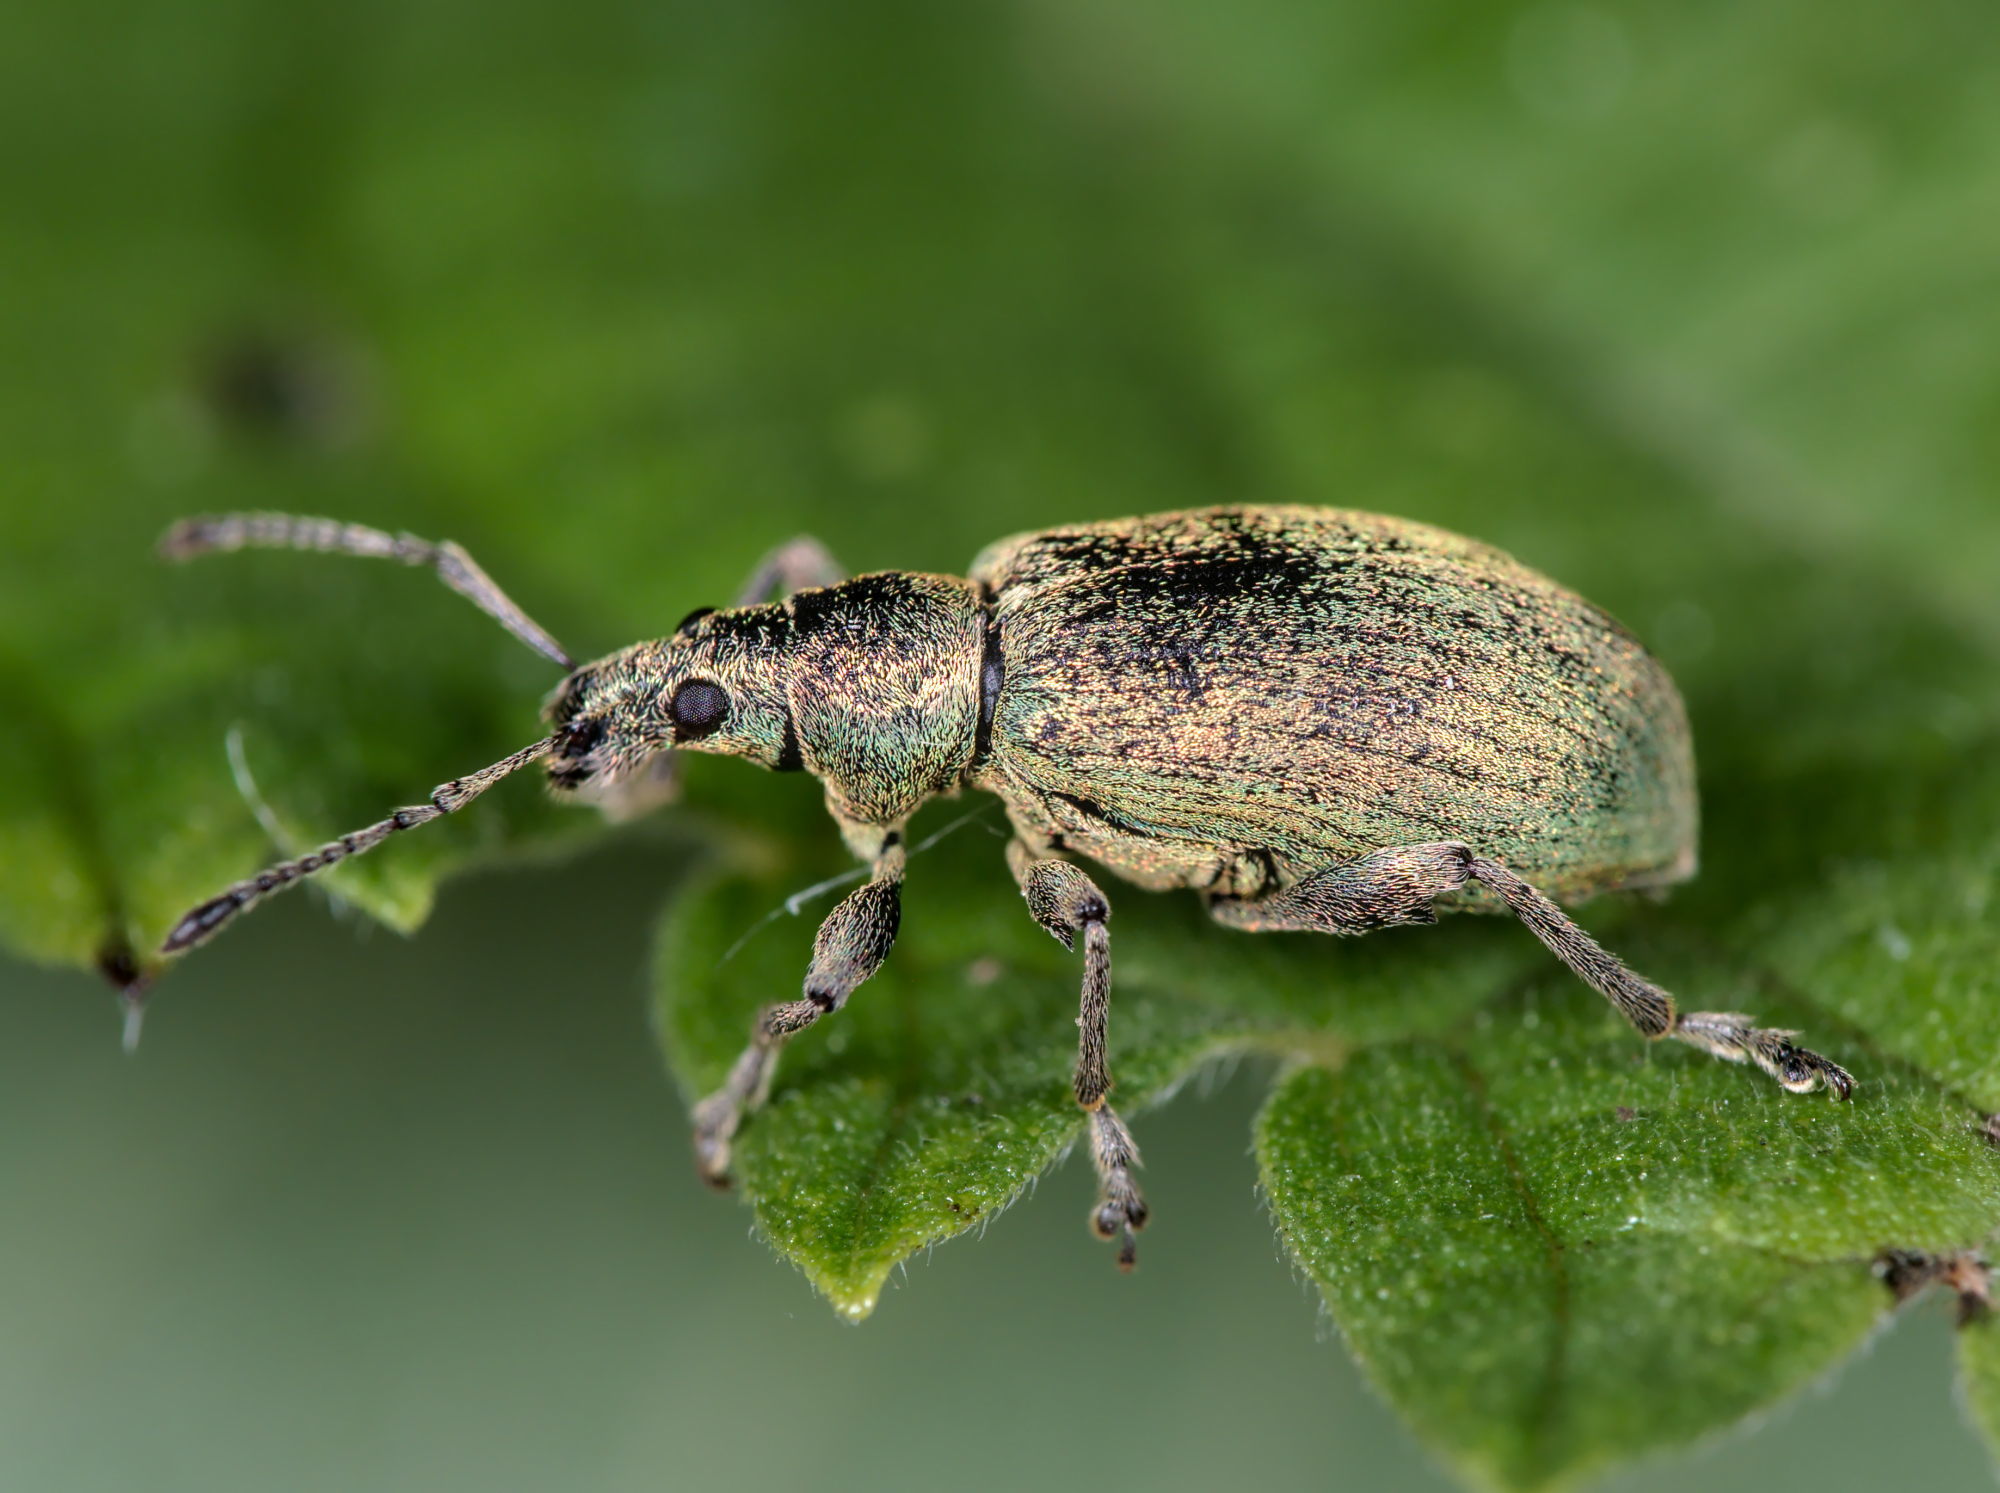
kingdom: Animalia
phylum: Arthropoda
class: Insecta
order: Coleoptera
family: Curculionidae
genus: Phyllobius
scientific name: Phyllobius pomaceus
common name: Green nettle weevil
